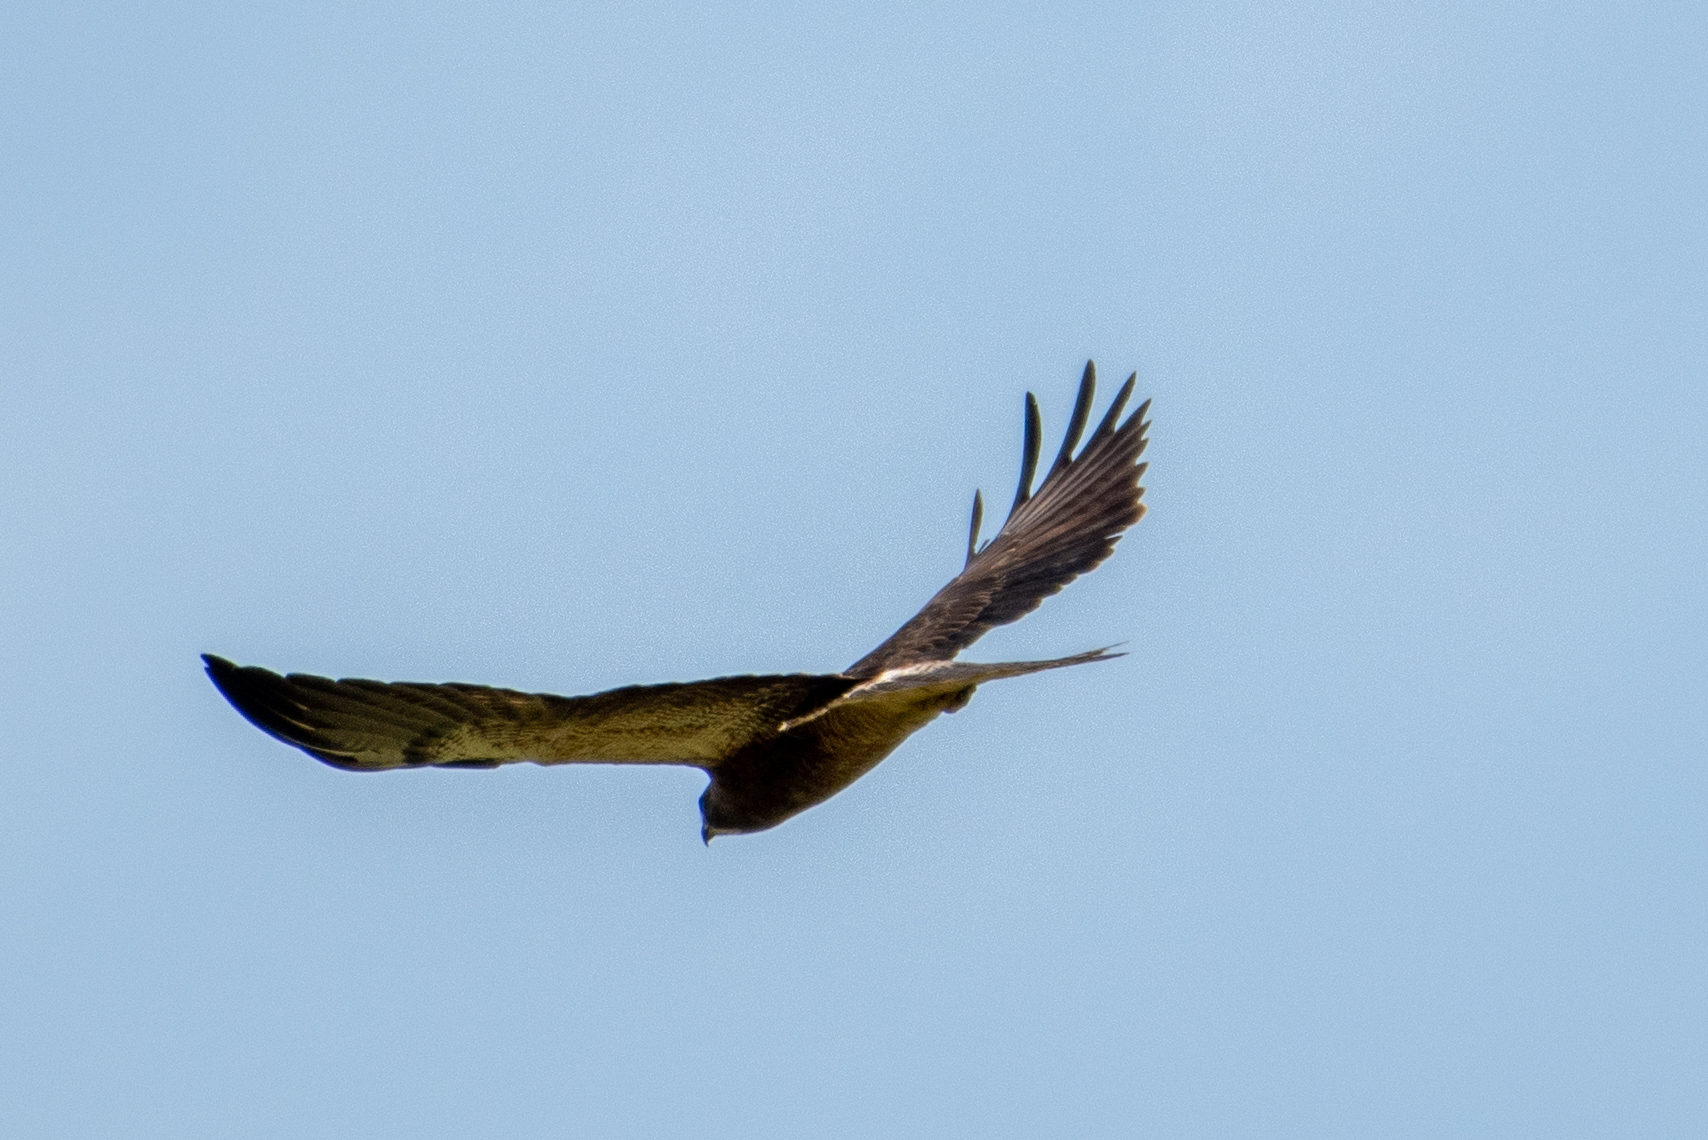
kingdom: Animalia
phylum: Chordata
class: Aves
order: Accipitriformes
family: Accipitridae
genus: Buteo
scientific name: Buteo swainsoni
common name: Swainson's hawk
